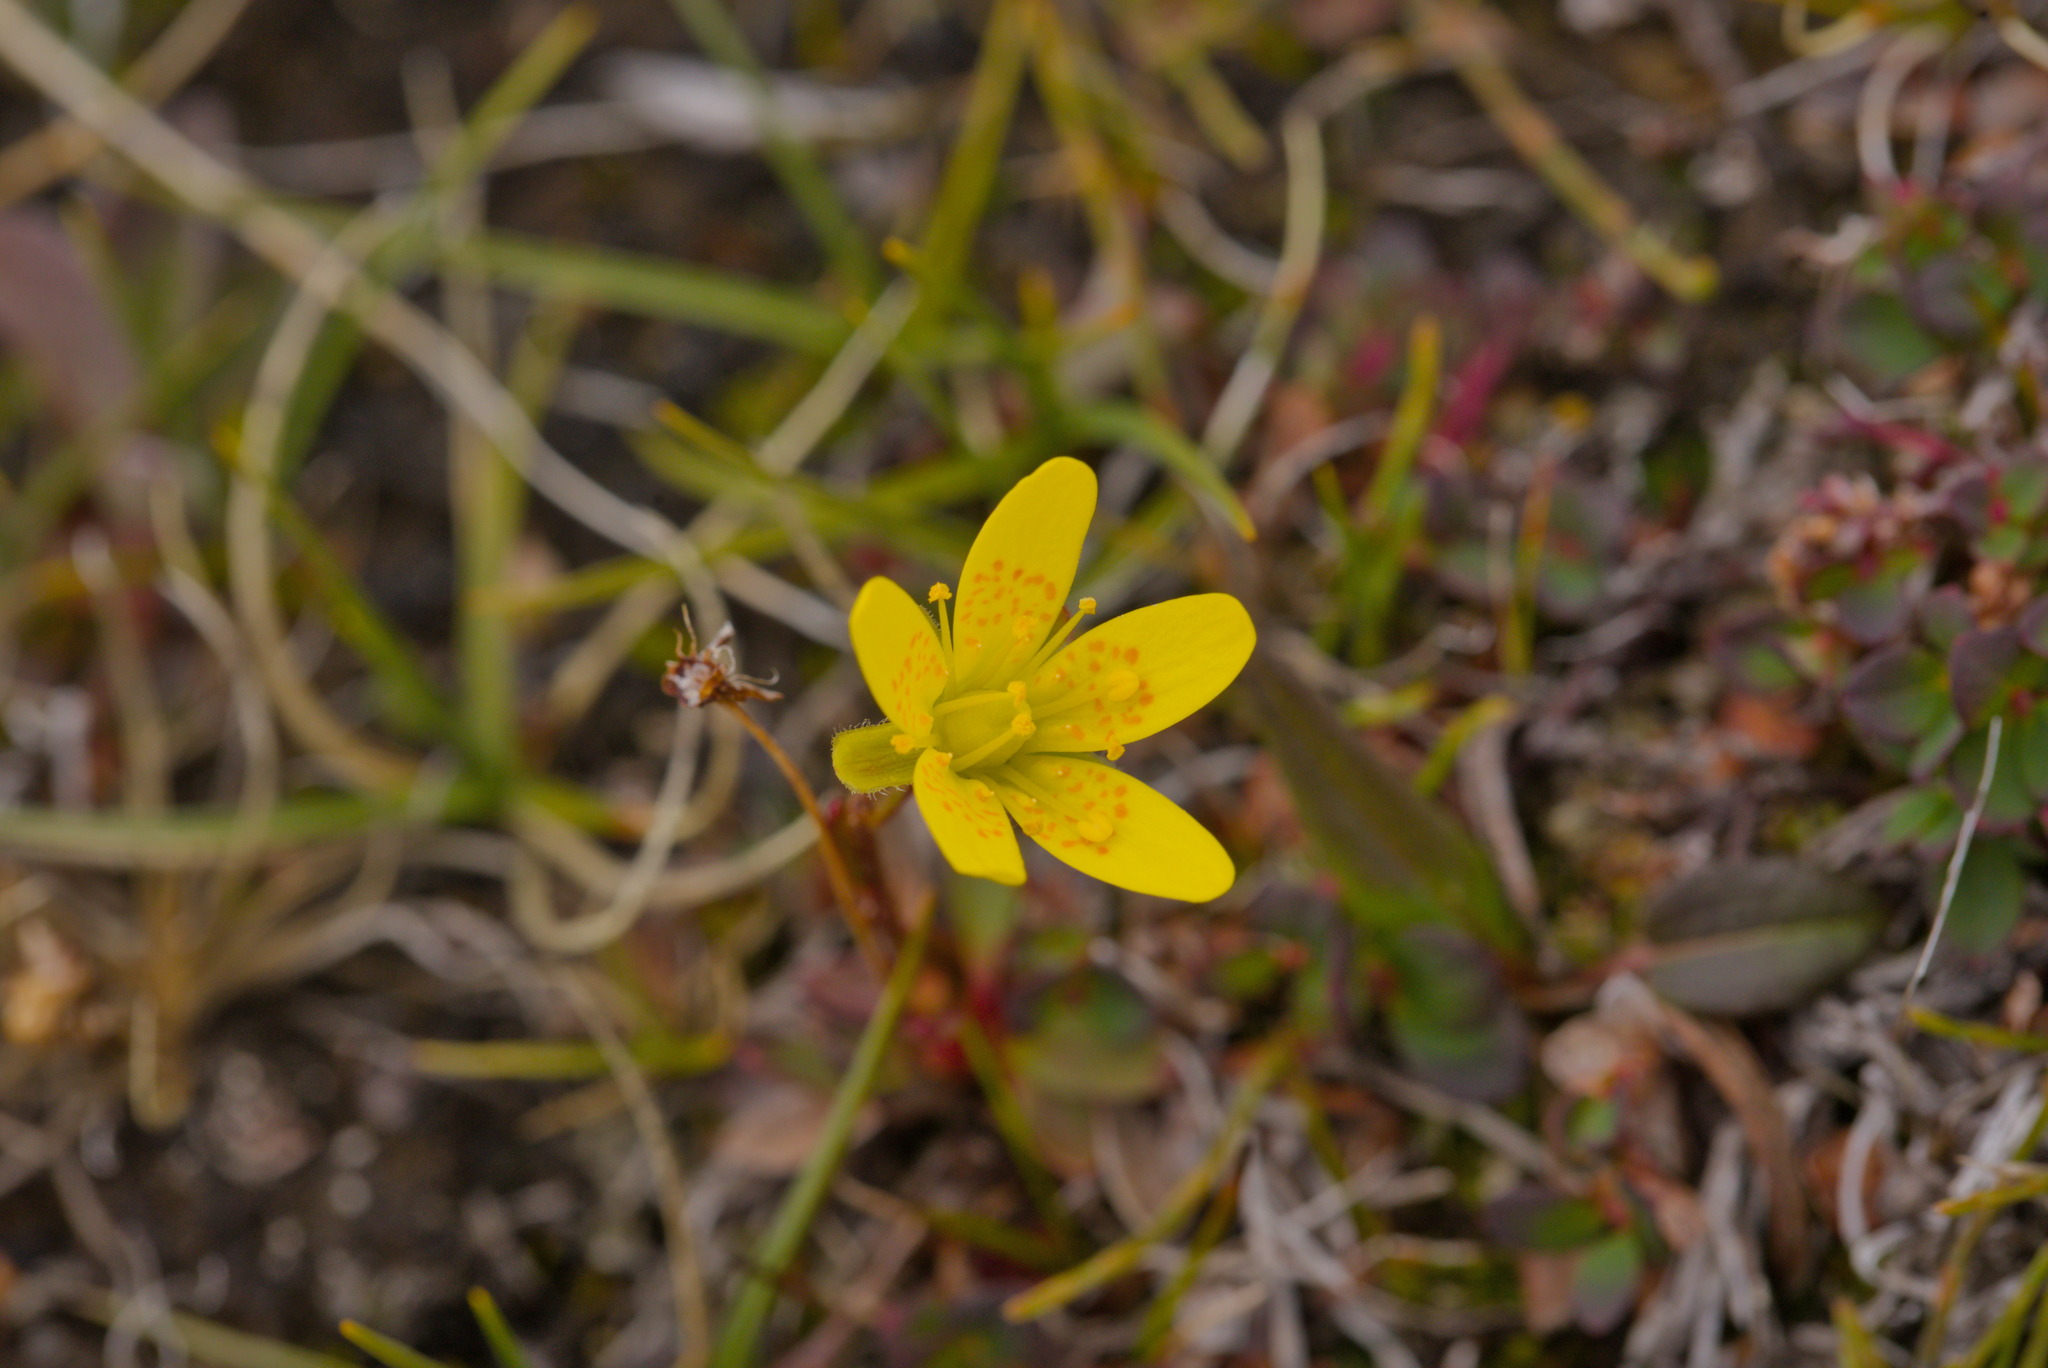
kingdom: Plantae
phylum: Tracheophyta
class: Magnoliopsida
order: Saxifragales
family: Saxifragaceae
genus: Saxifraga
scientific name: Saxifraga hirculus
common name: Yellow marsh saxifrage
